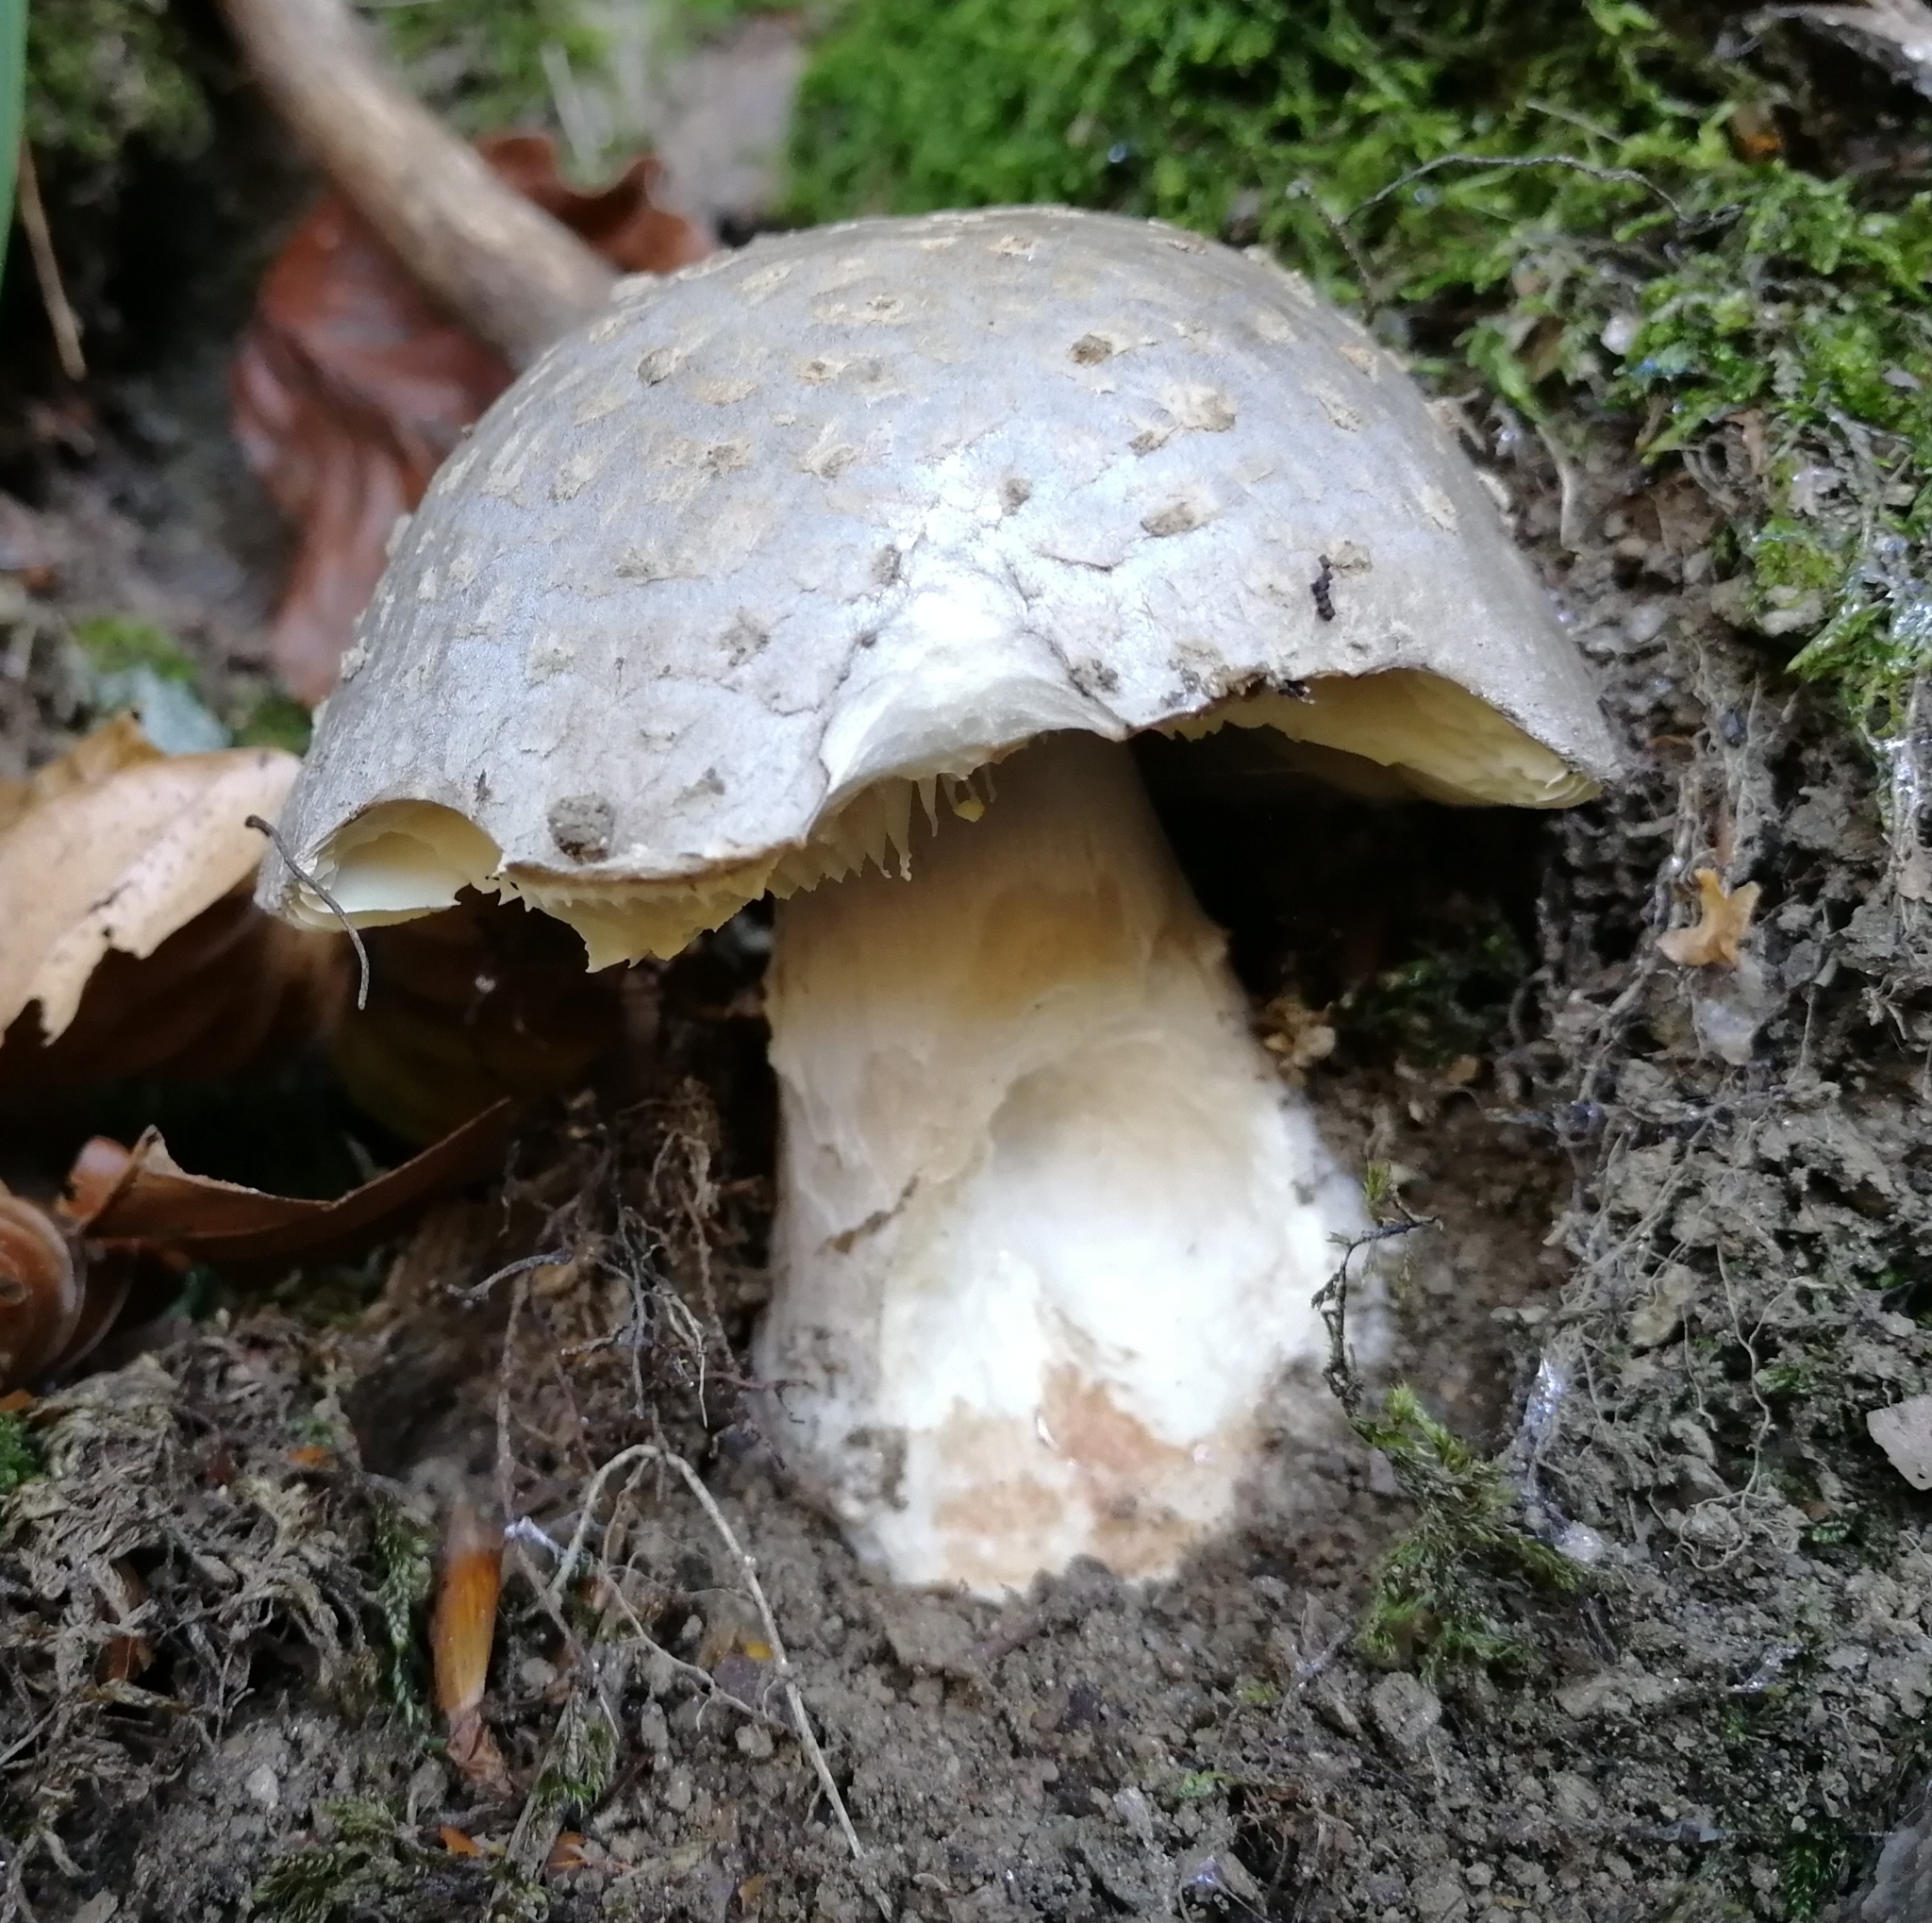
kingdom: Fungi
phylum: Basidiomycota
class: Agaricomycetes
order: Agaricales
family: Amanitaceae
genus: Amanita
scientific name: Amanita excelsa
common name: European false blusher
